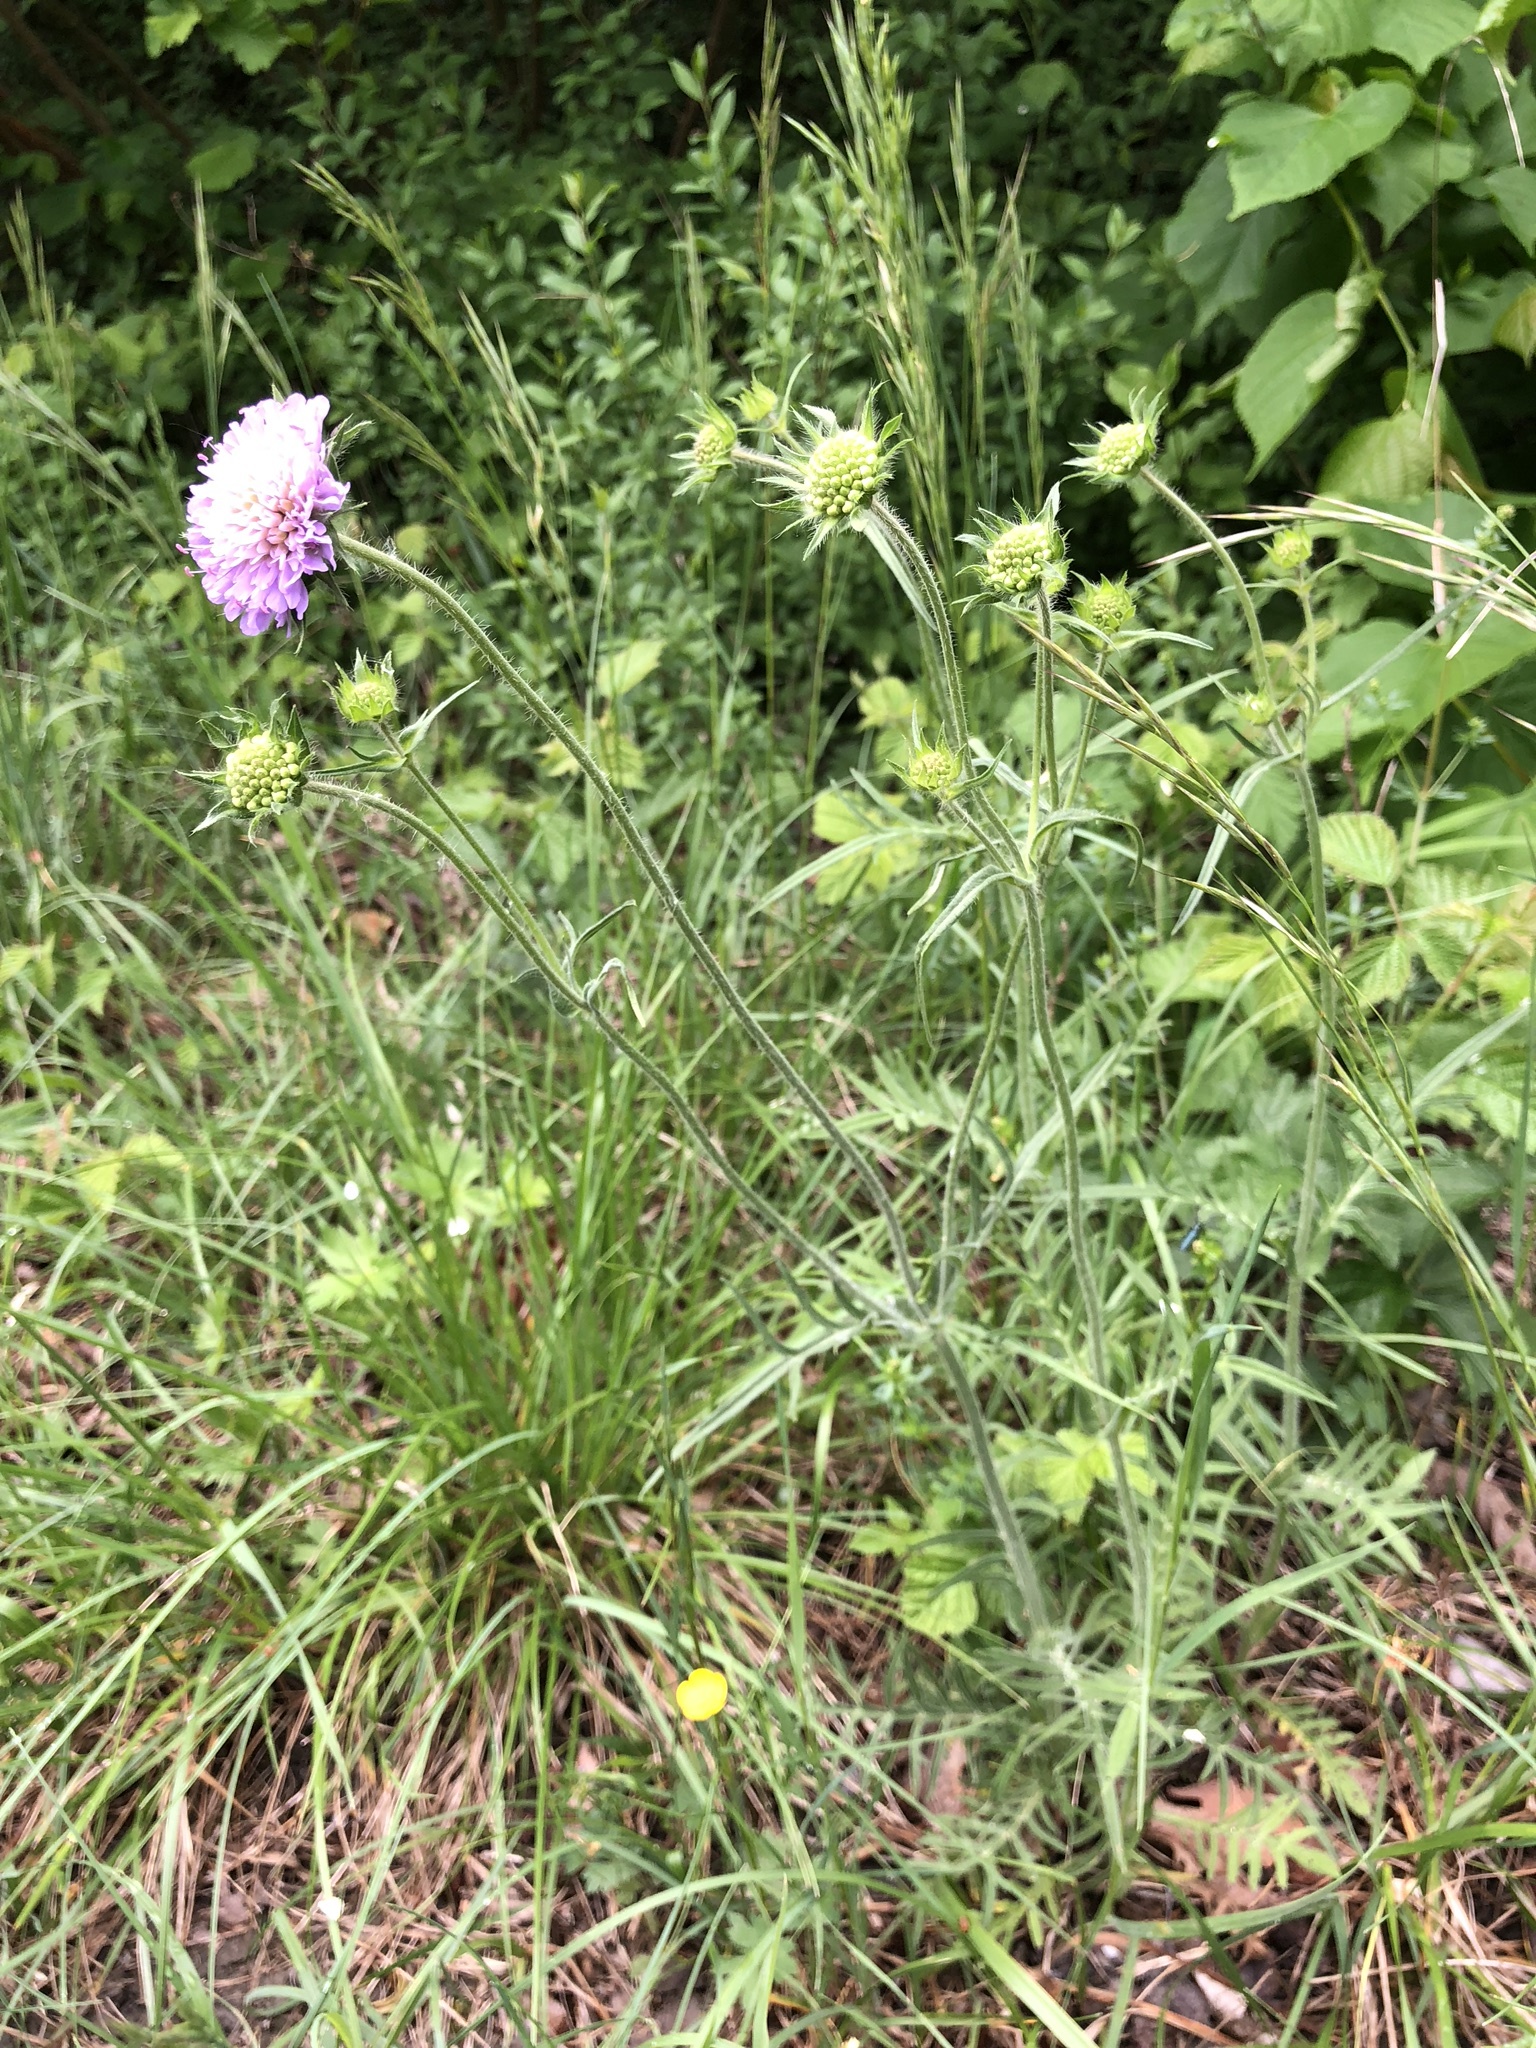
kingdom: Plantae
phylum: Tracheophyta
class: Magnoliopsida
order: Dipsacales
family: Caprifoliaceae
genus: Knautia
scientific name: Knautia arvensis
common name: Field scabiosa
